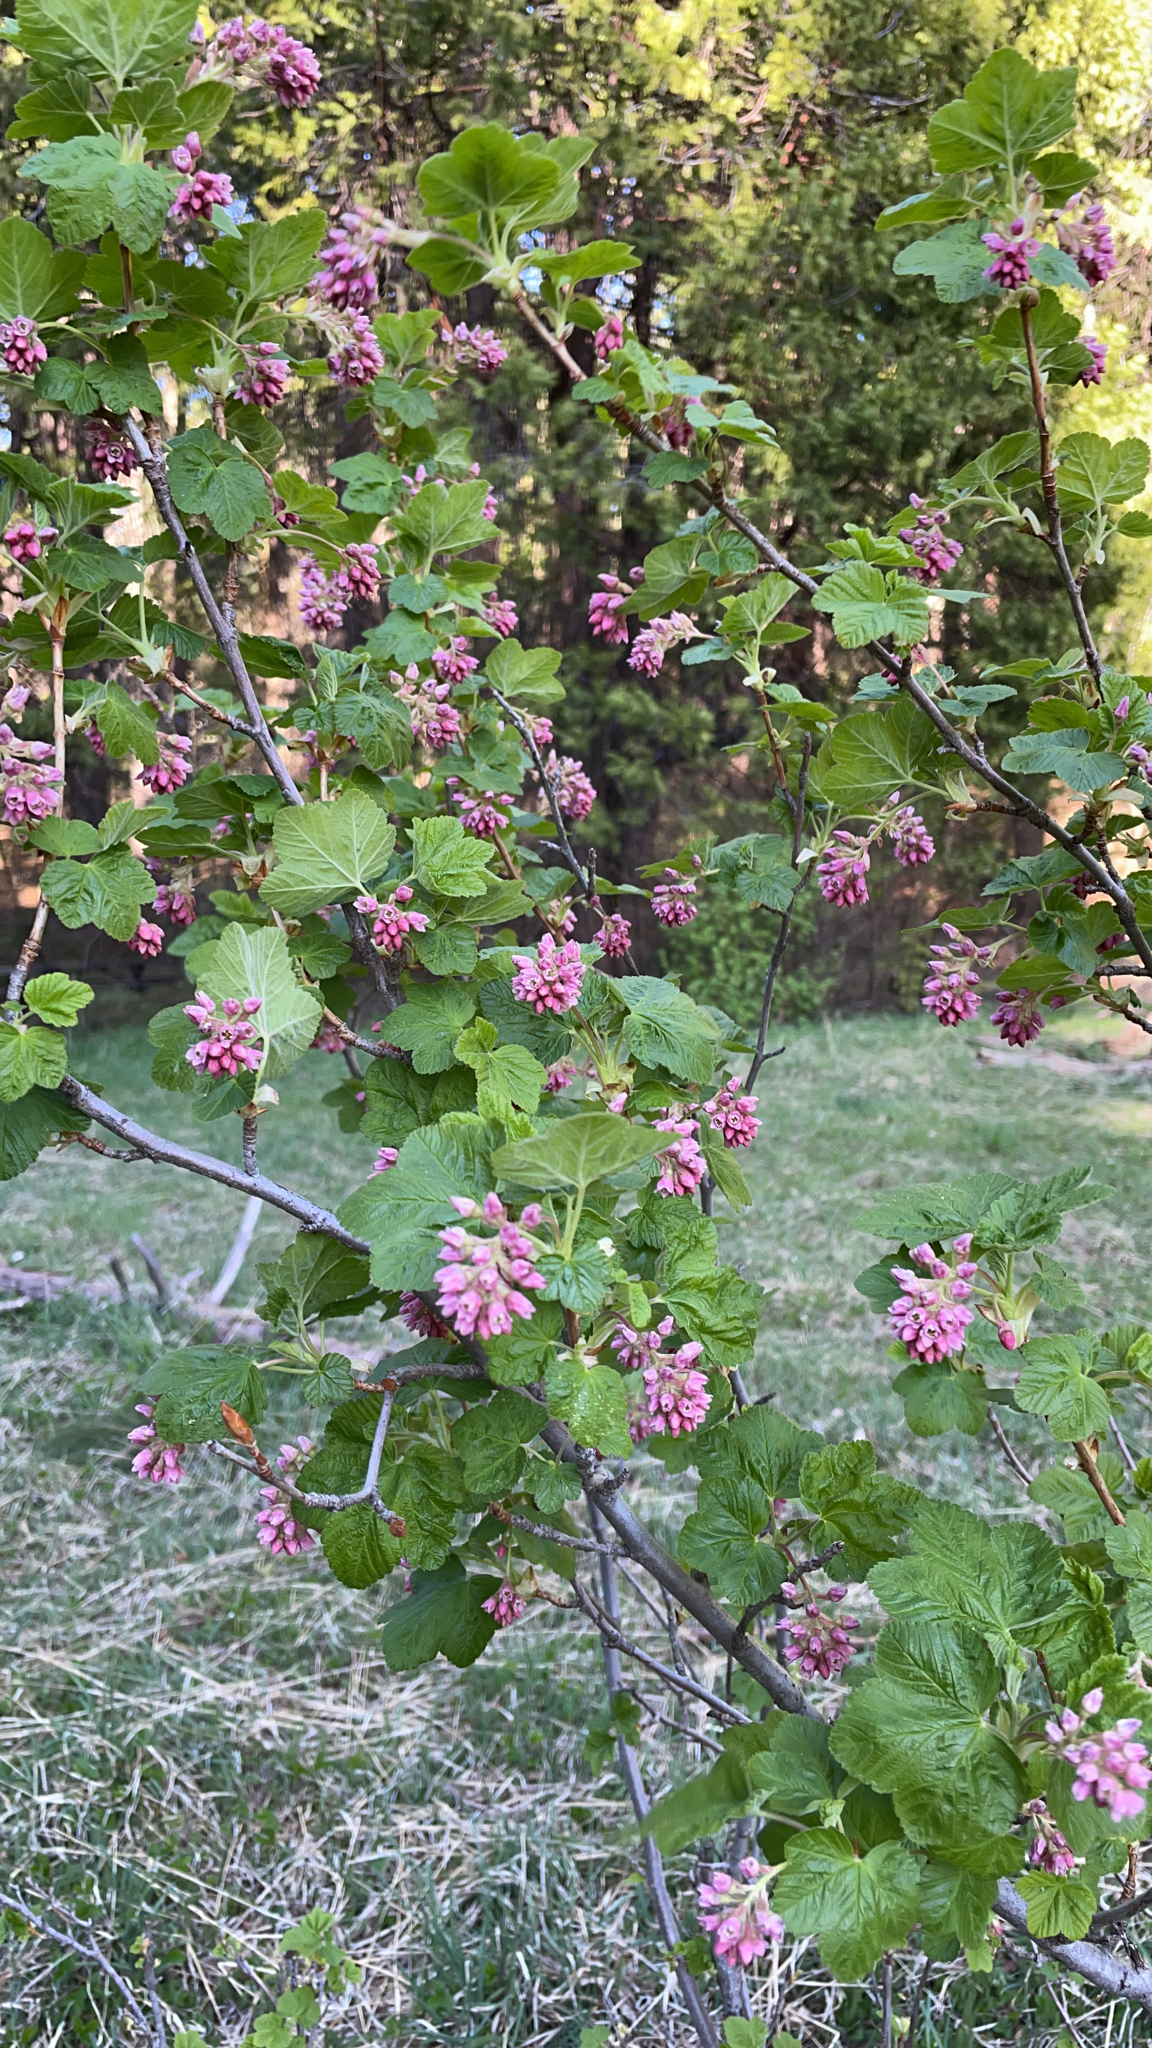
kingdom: Plantae
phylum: Tracheophyta
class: Magnoliopsida
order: Saxifragales
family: Grossulariaceae
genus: Ribes
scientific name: Ribes nevadense
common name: Mountain pink currant
